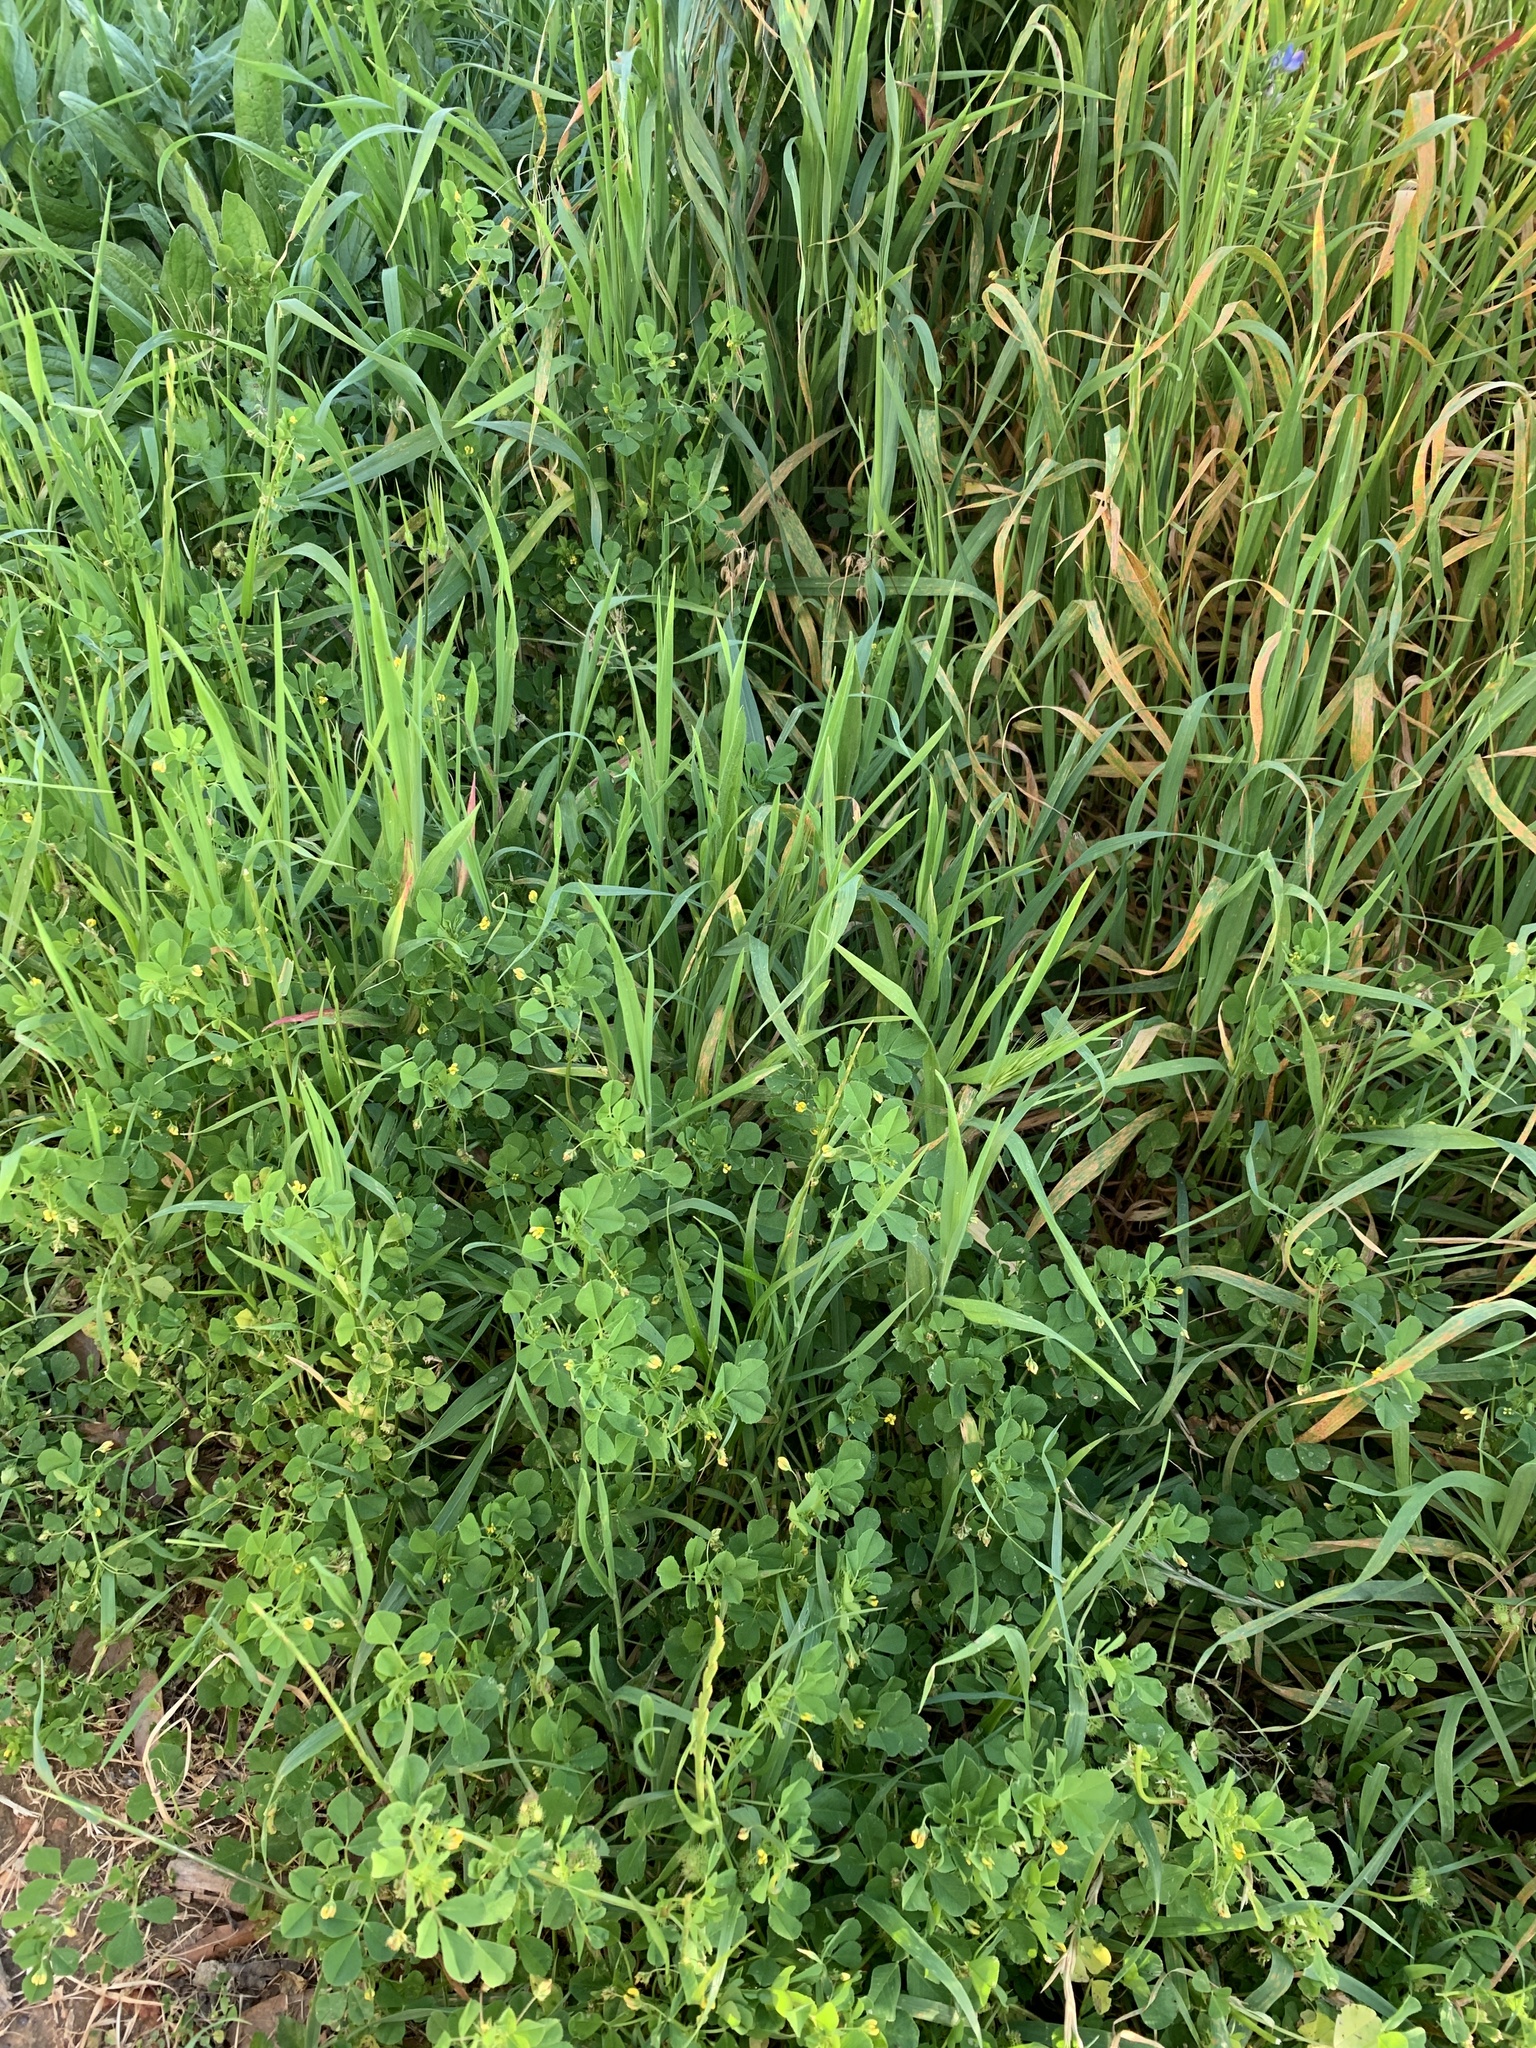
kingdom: Plantae
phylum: Tracheophyta
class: Magnoliopsida
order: Fabales
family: Fabaceae
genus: Medicago
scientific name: Medicago polymorpha
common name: Burclover
